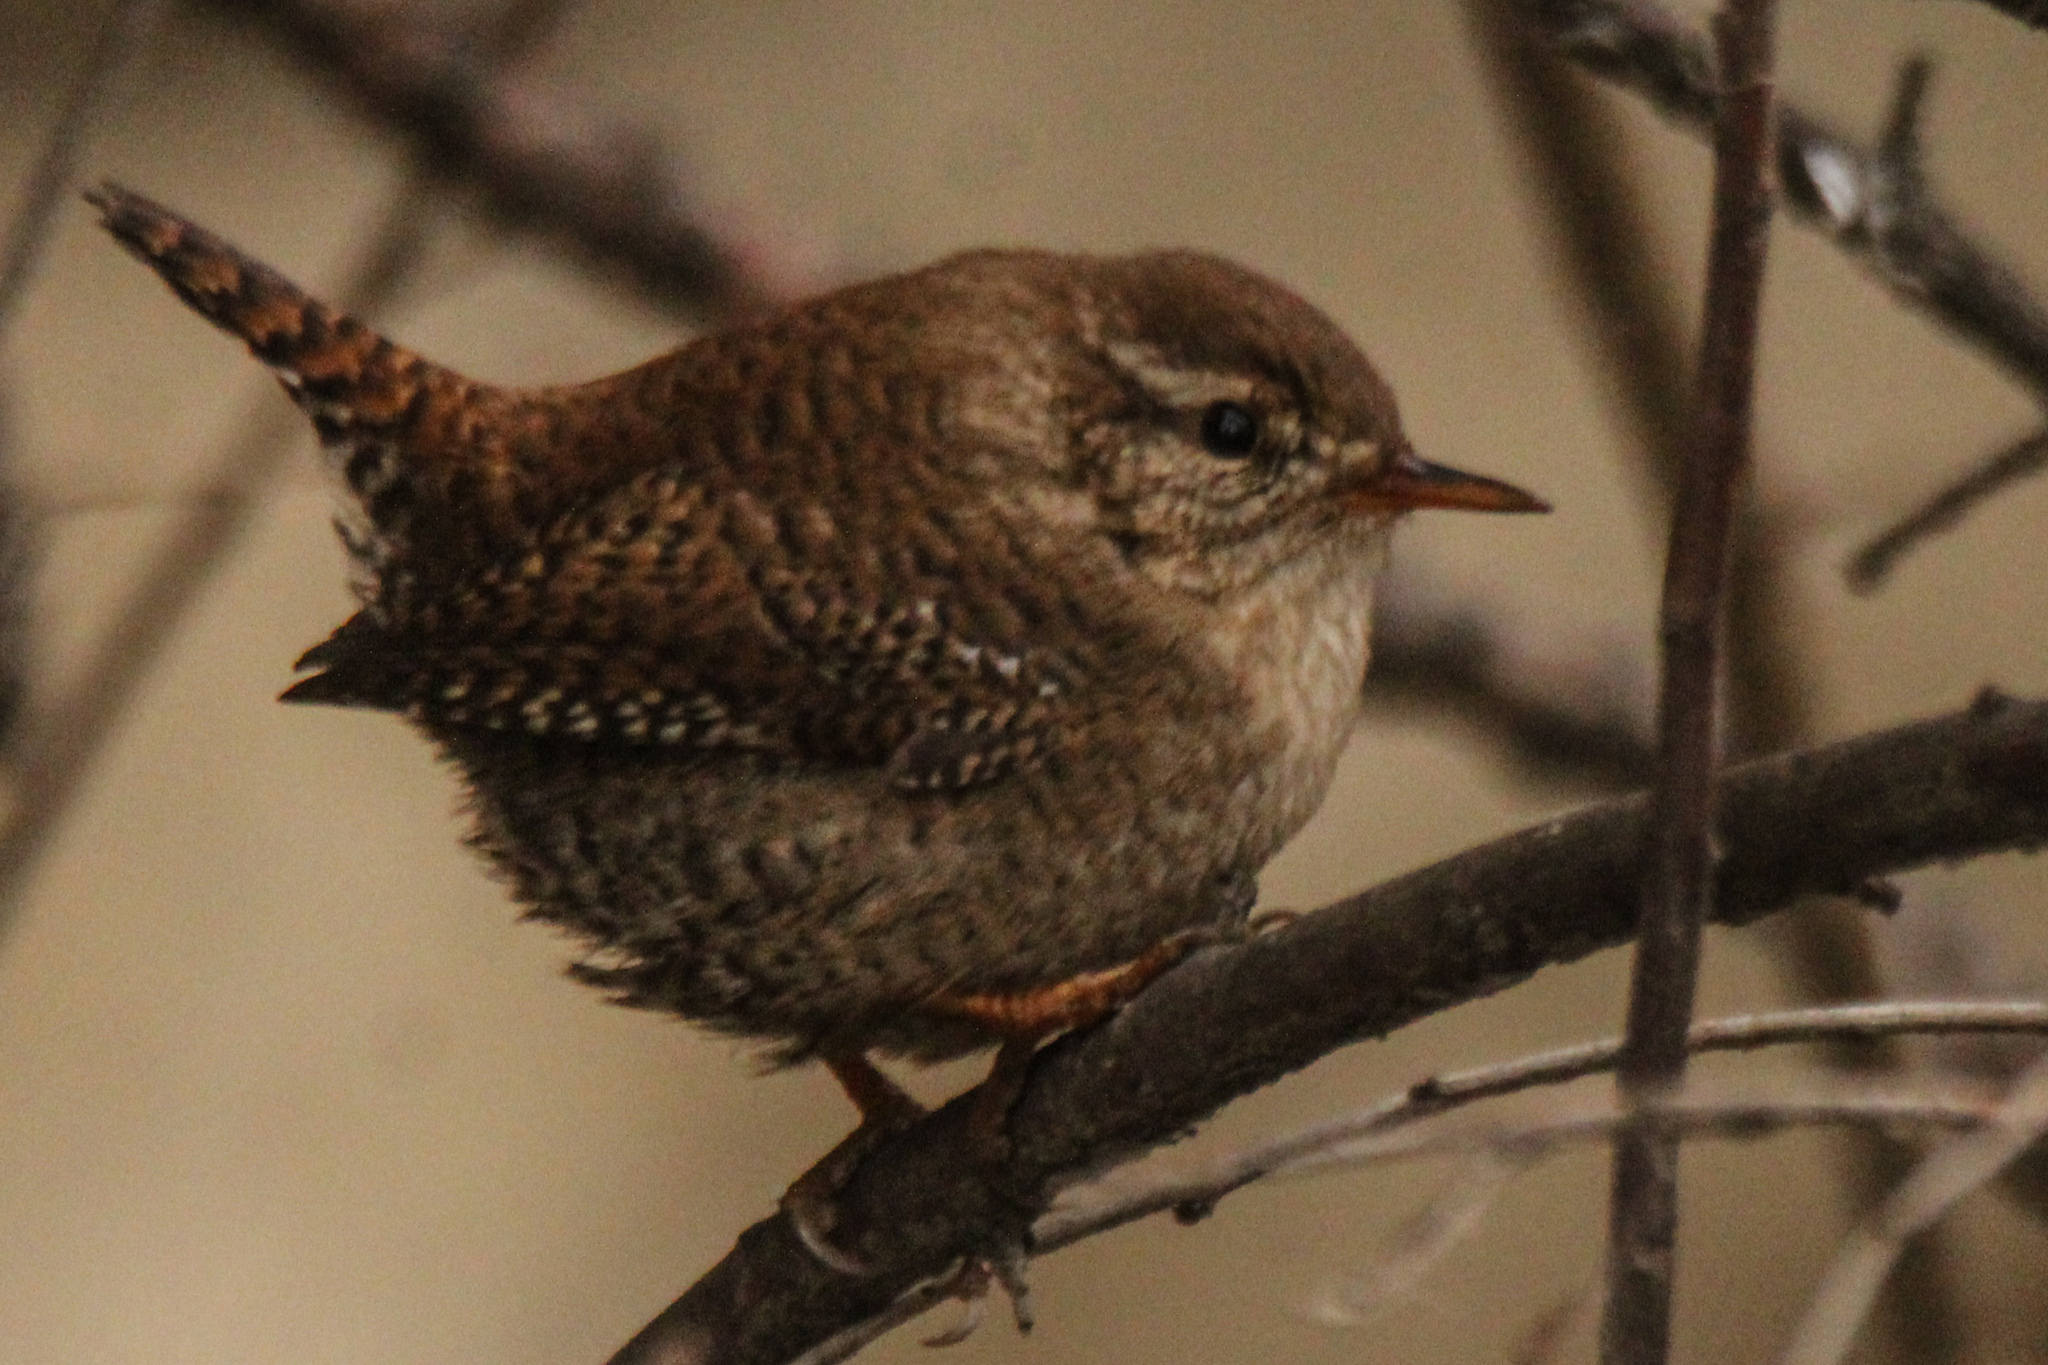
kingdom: Animalia
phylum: Chordata
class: Aves
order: Passeriformes
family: Troglodytidae
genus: Troglodytes
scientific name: Troglodytes troglodytes
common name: Eurasian wren
